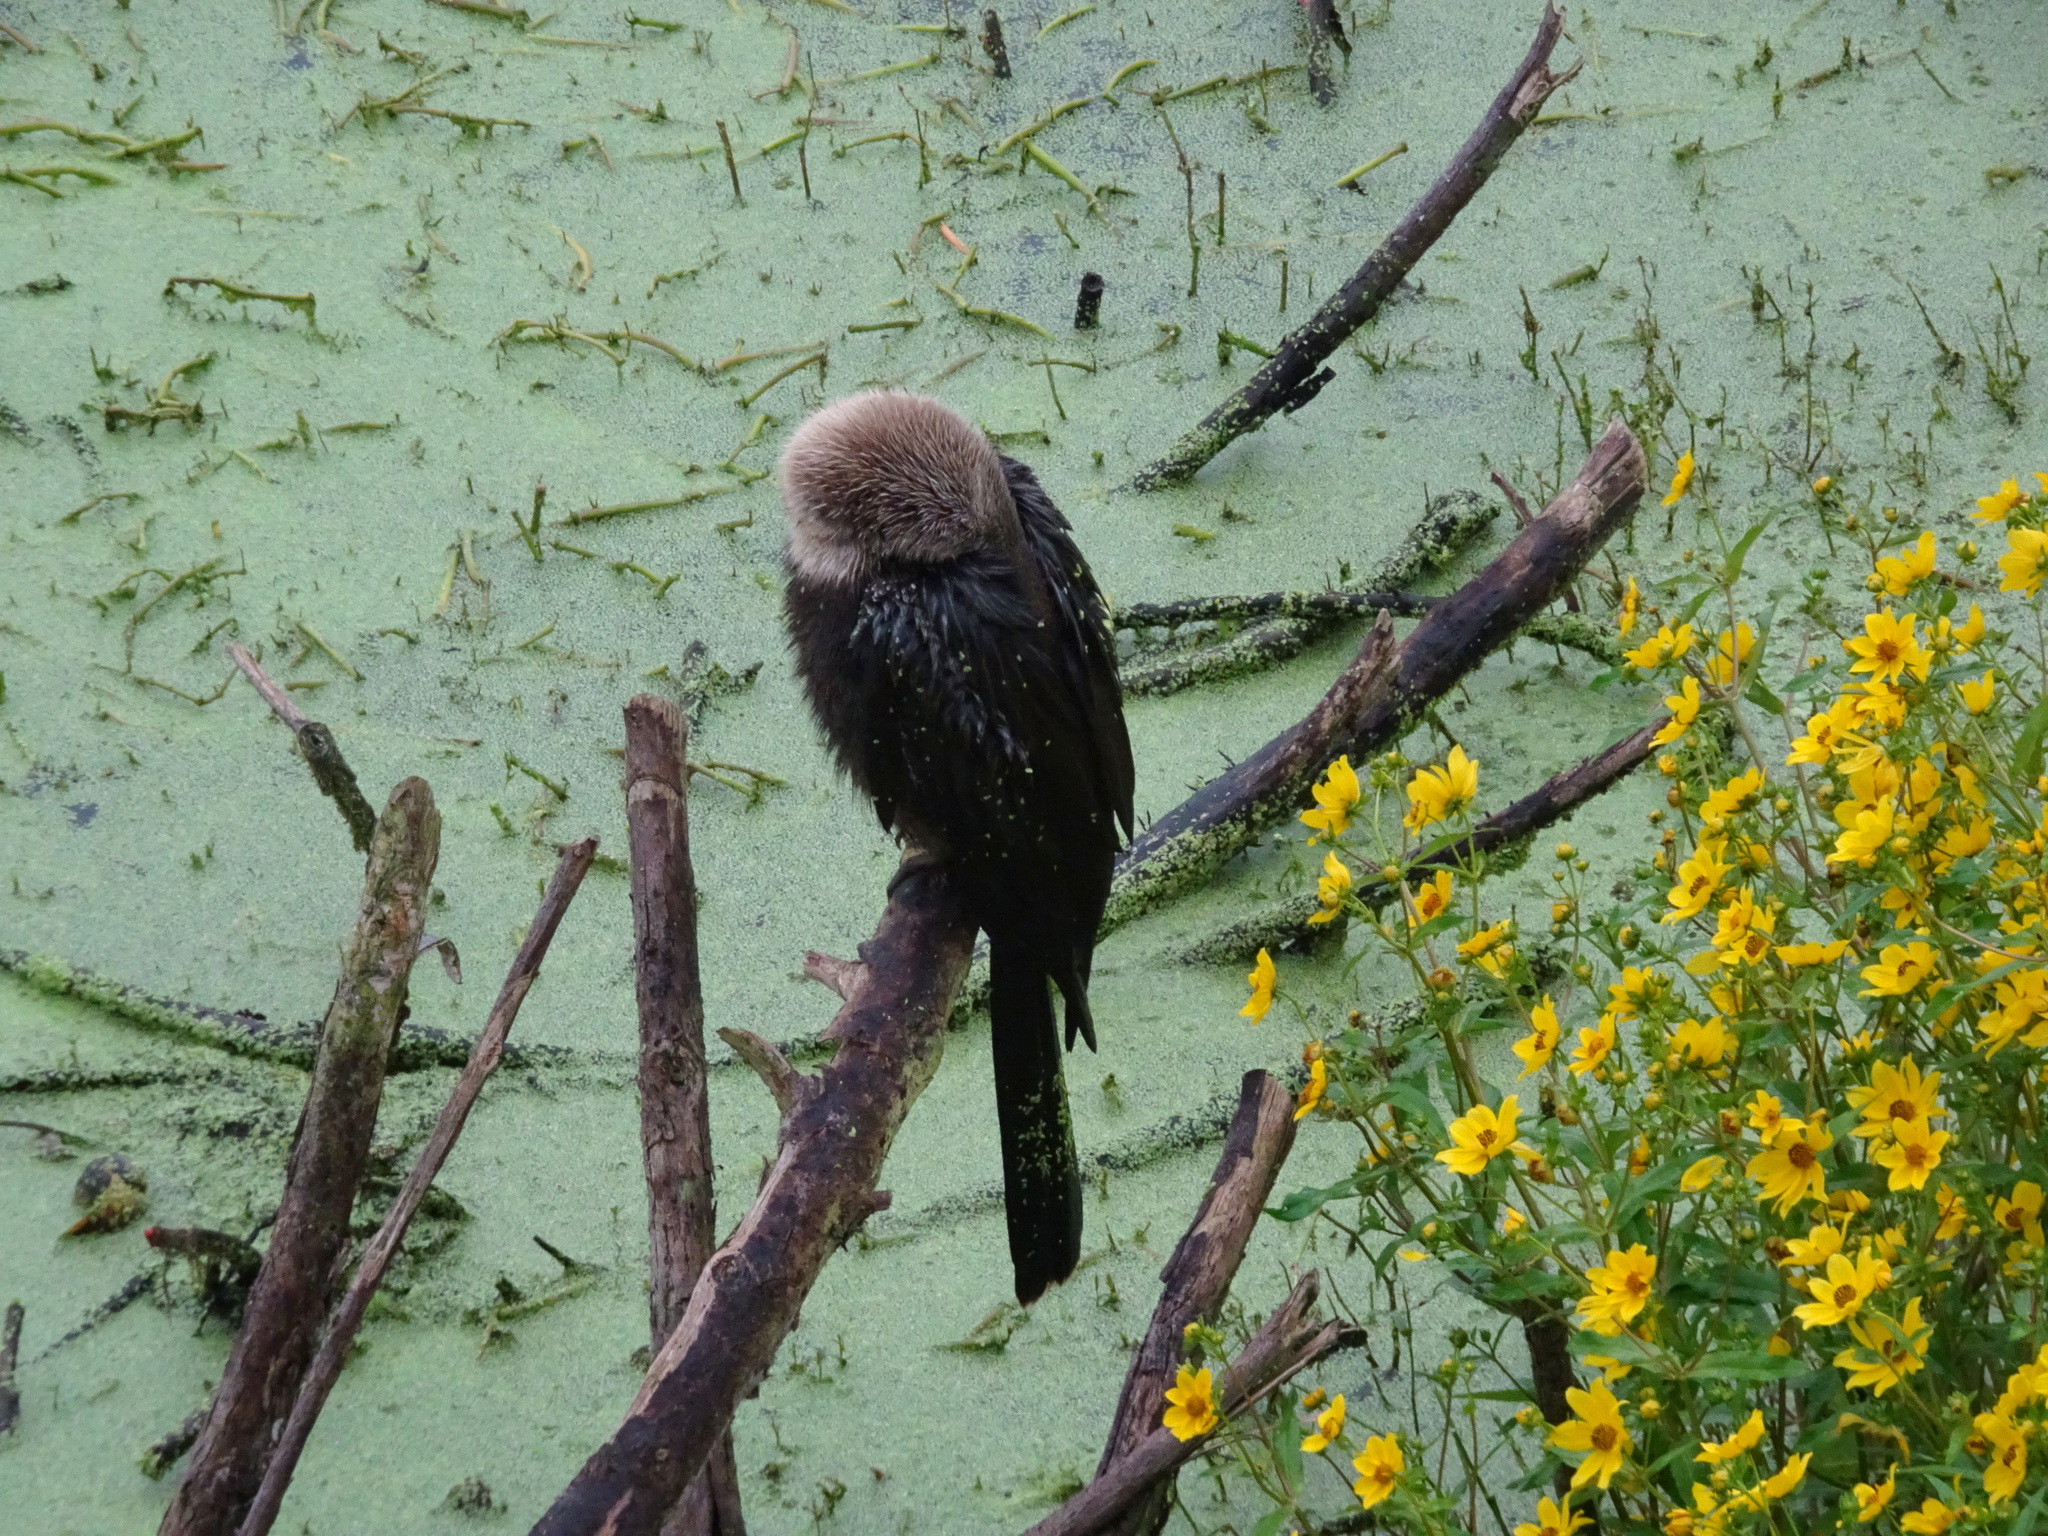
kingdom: Animalia
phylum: Chordata
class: Aves
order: Suliformes
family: Anhingidae
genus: Anhinga
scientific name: Anhinga anhinga
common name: Anhinga
